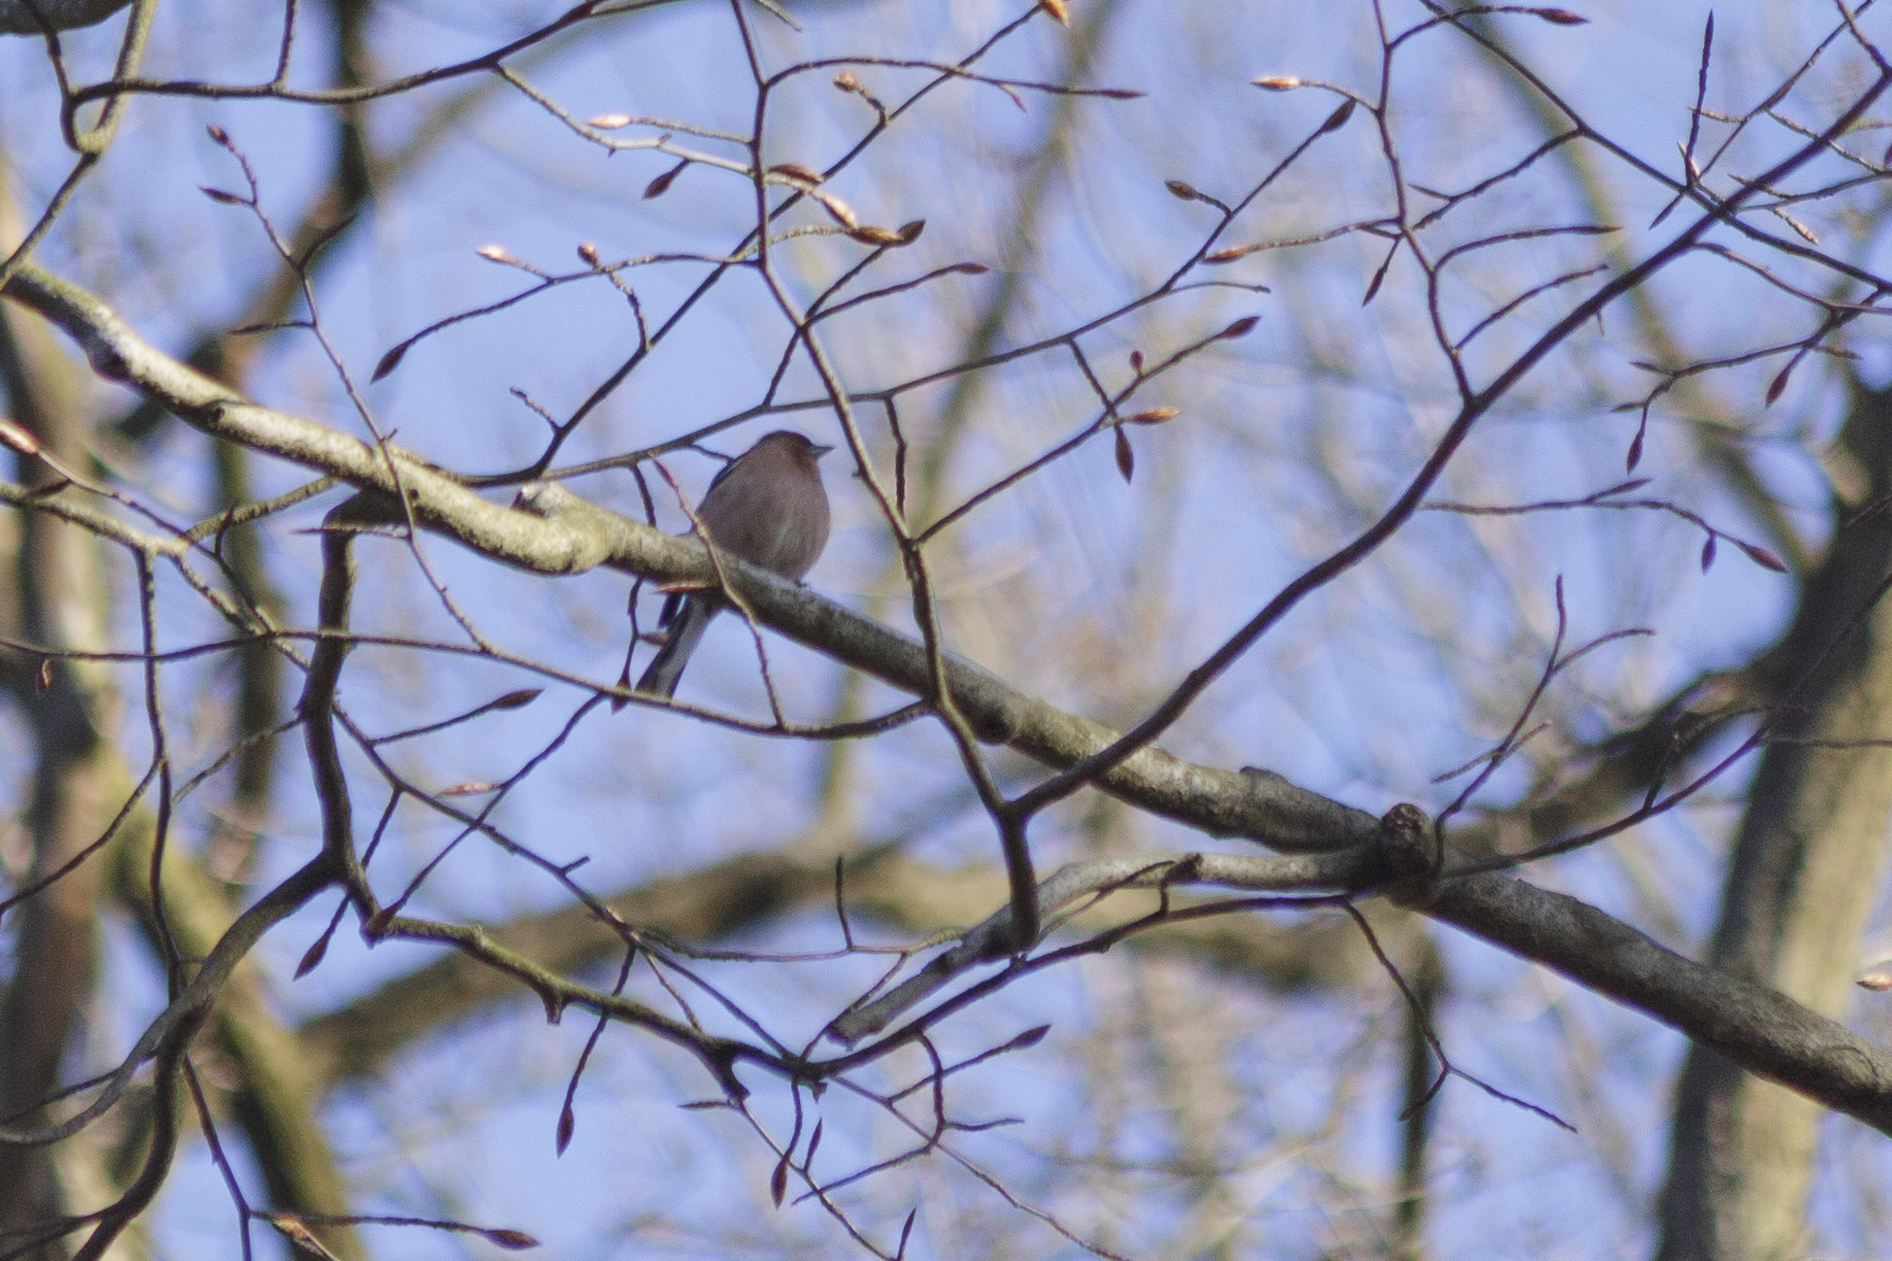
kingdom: Animalia
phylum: Chordata
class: Aves
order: Passeriformes
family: Fringillidae
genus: Fringilla
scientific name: Fringilla coelebs
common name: Common chaffinch
